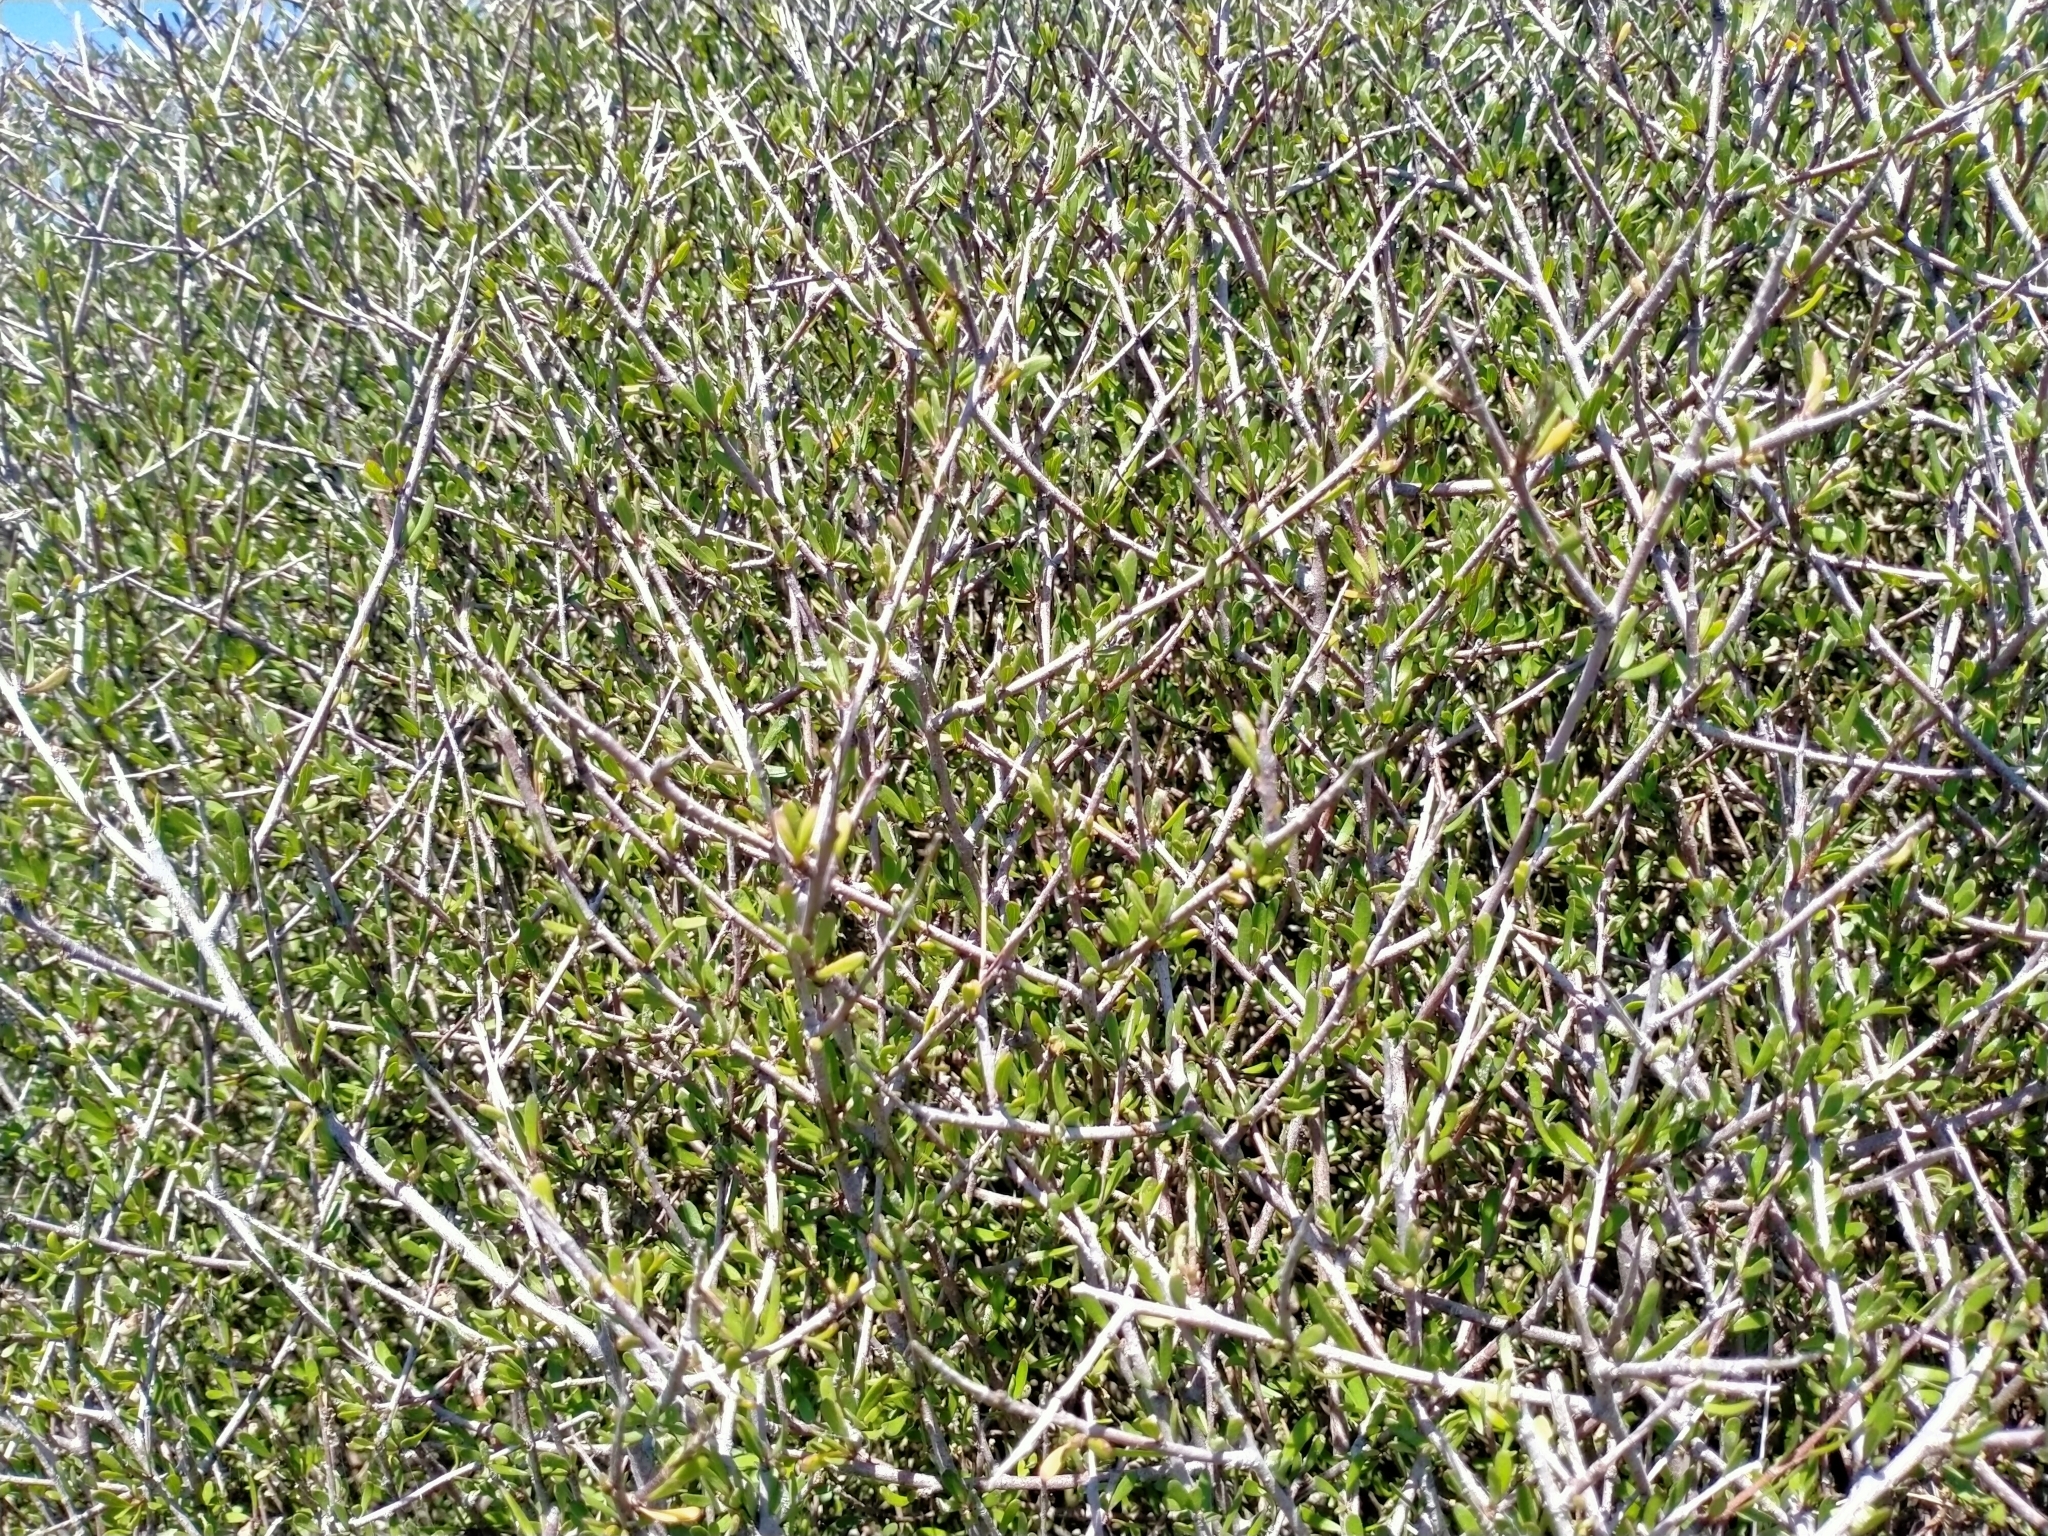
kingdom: Plantae
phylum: Tracheophyta
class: Magnoliopsida
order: Malvales
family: Malvaceae
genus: Plagianthus
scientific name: Plagianthus divaricatus
